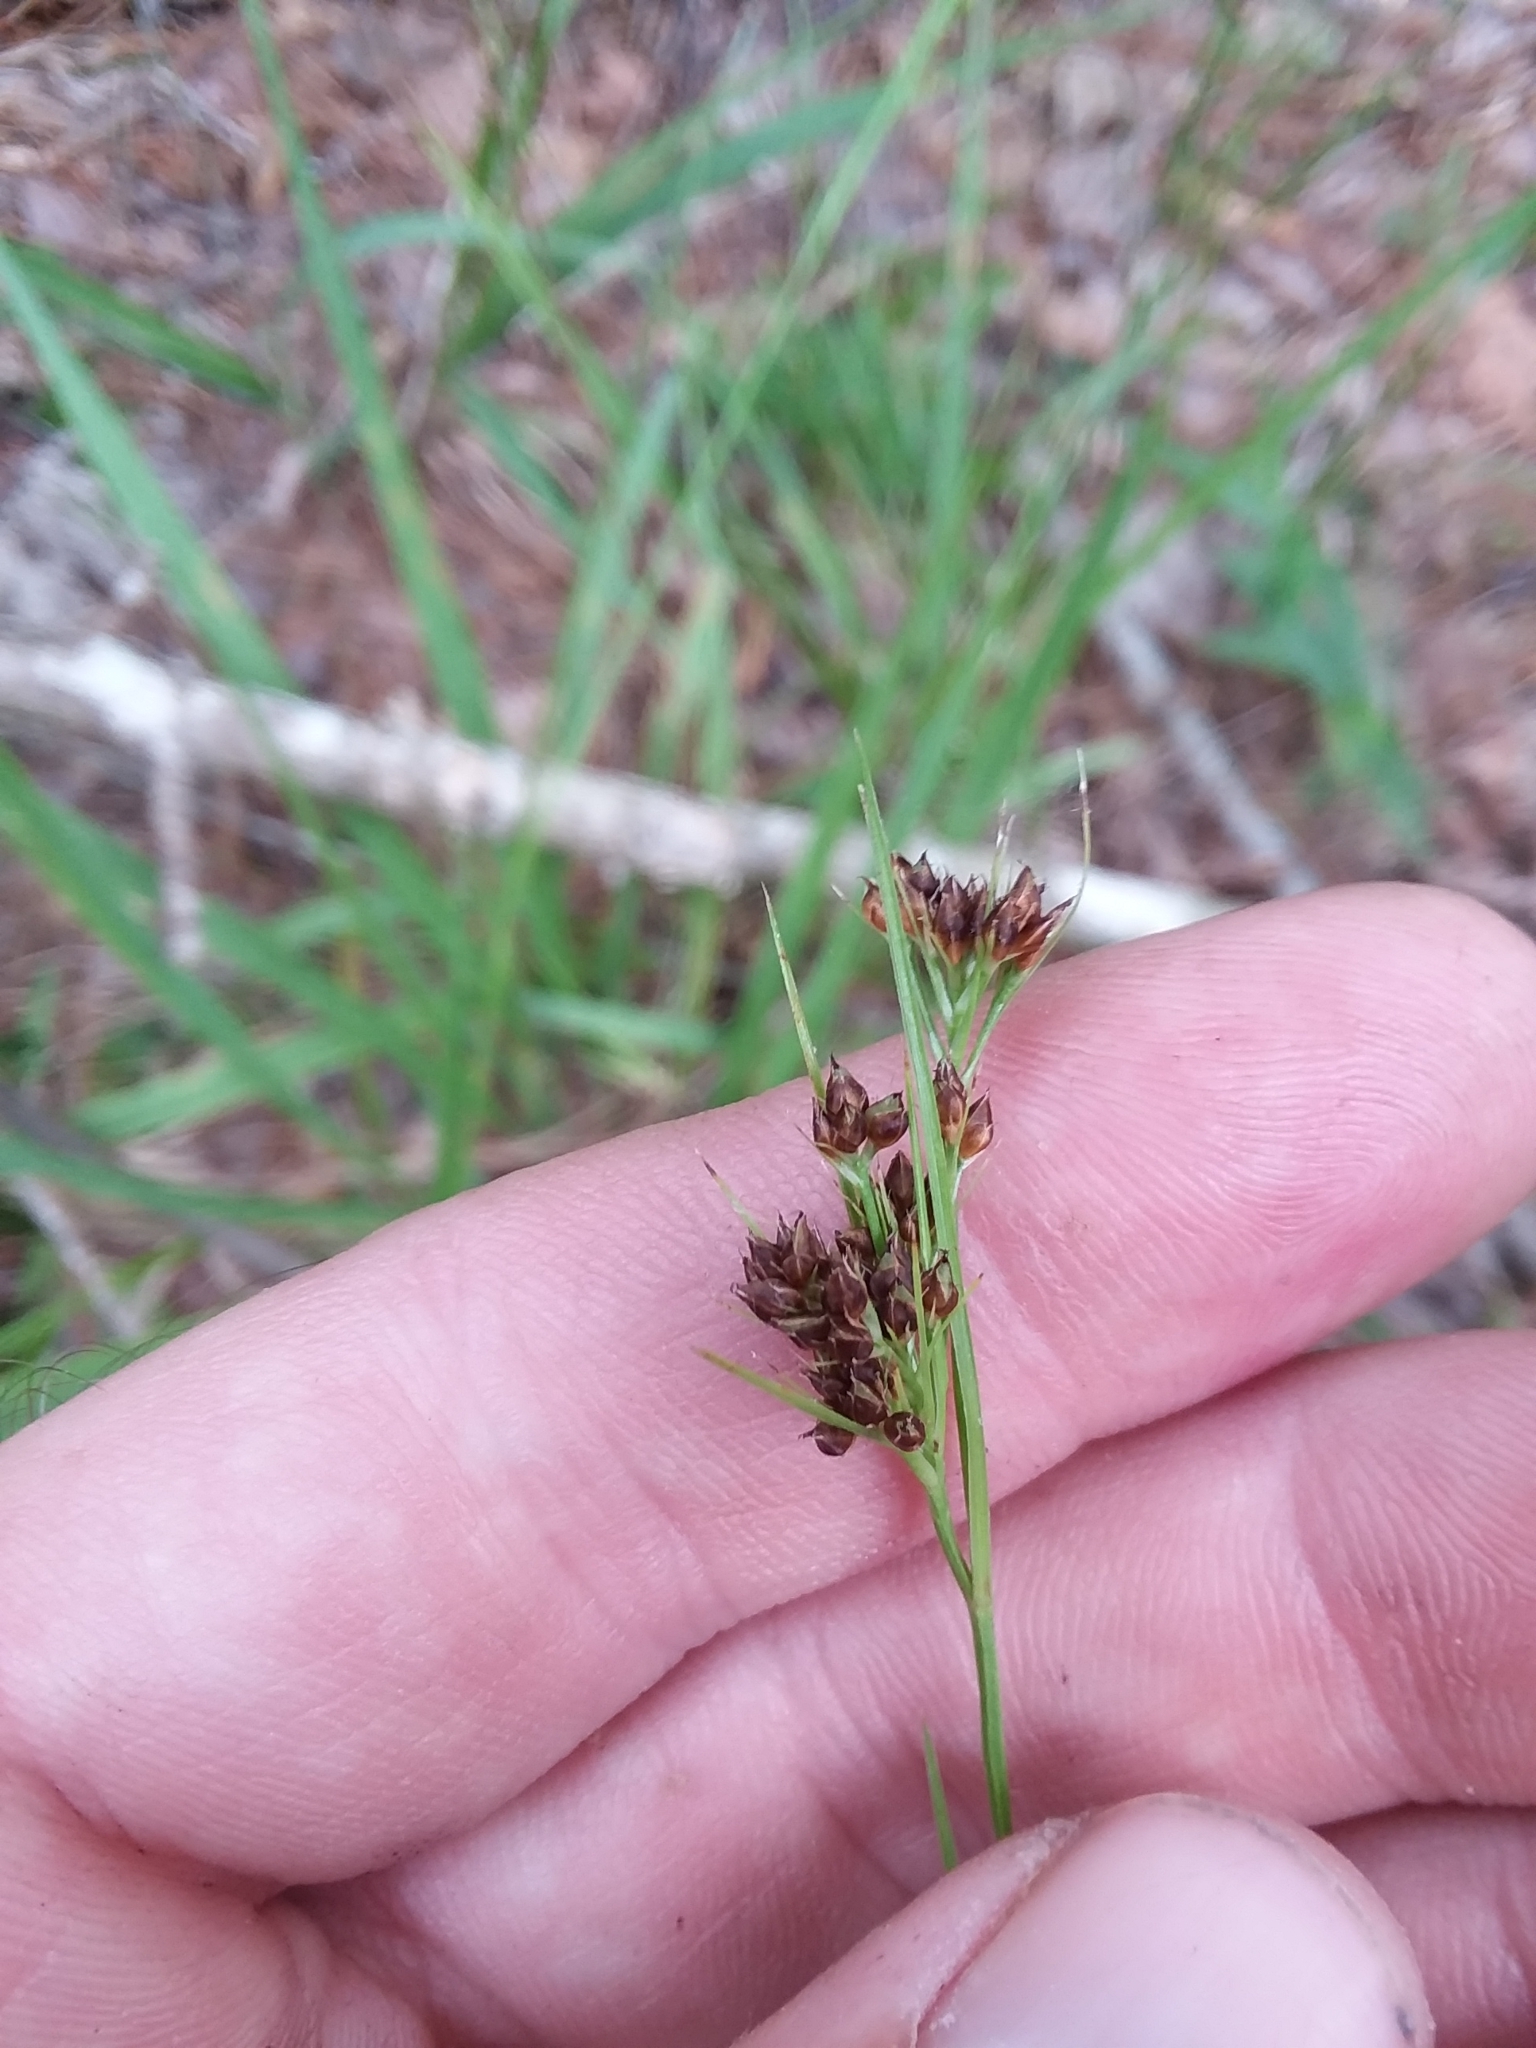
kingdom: Plantae
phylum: Tracheophyta
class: Liliopsida
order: Poales
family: Cyperaceae
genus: Rhynchospora
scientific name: Rhynchospora recognita
